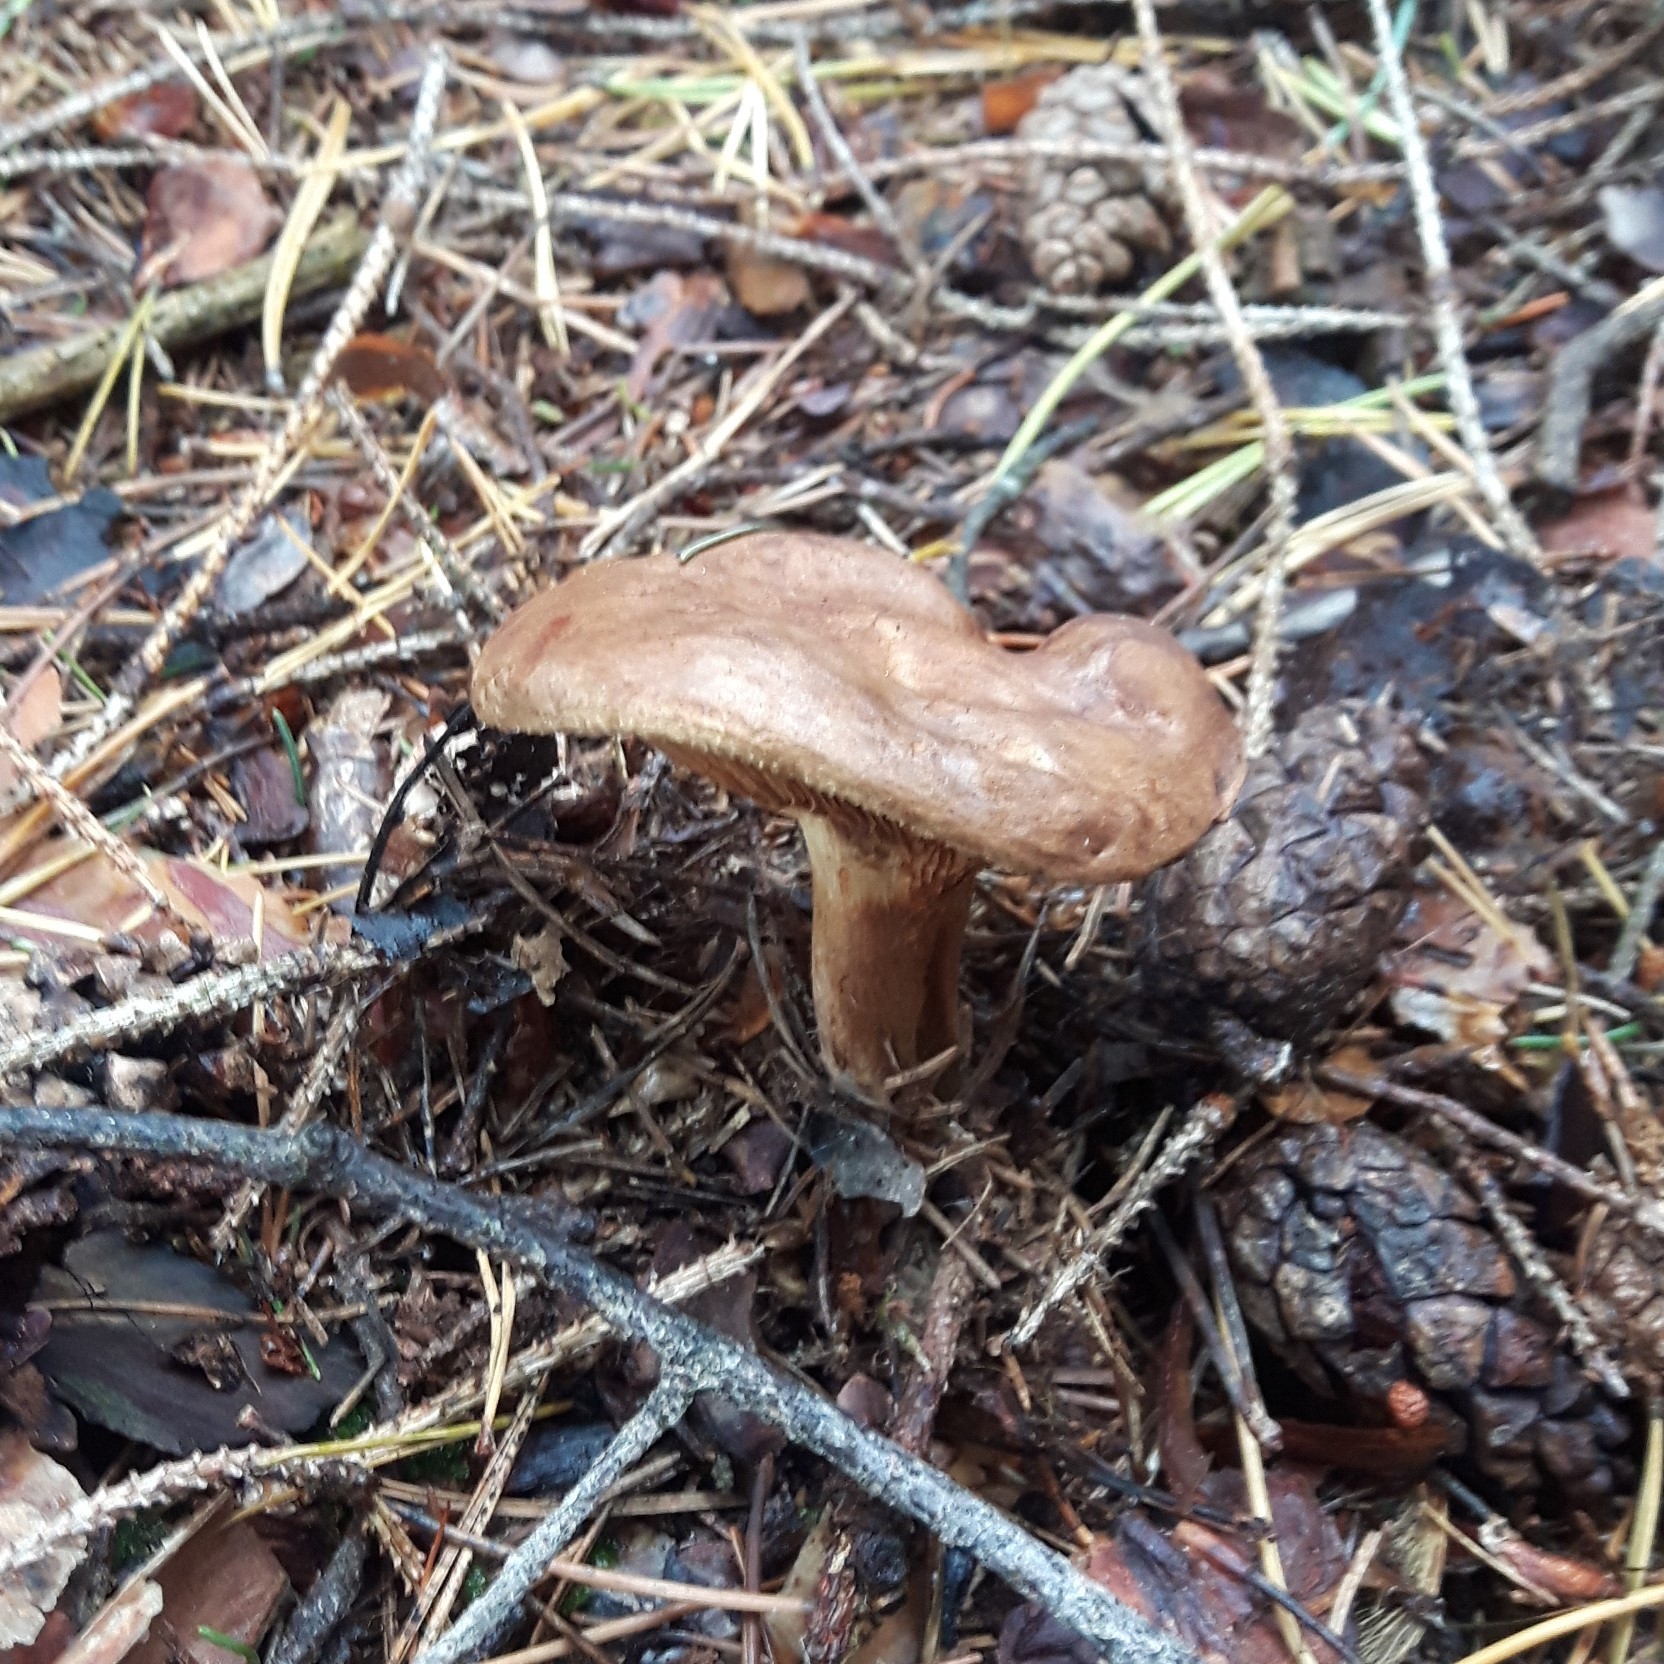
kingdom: Fungi
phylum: Basidiomycota
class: Agaricomycetes
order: Boletales
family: Paxillaceae
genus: Paxillus
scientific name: Paxillus involutus
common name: Brown roll rim
